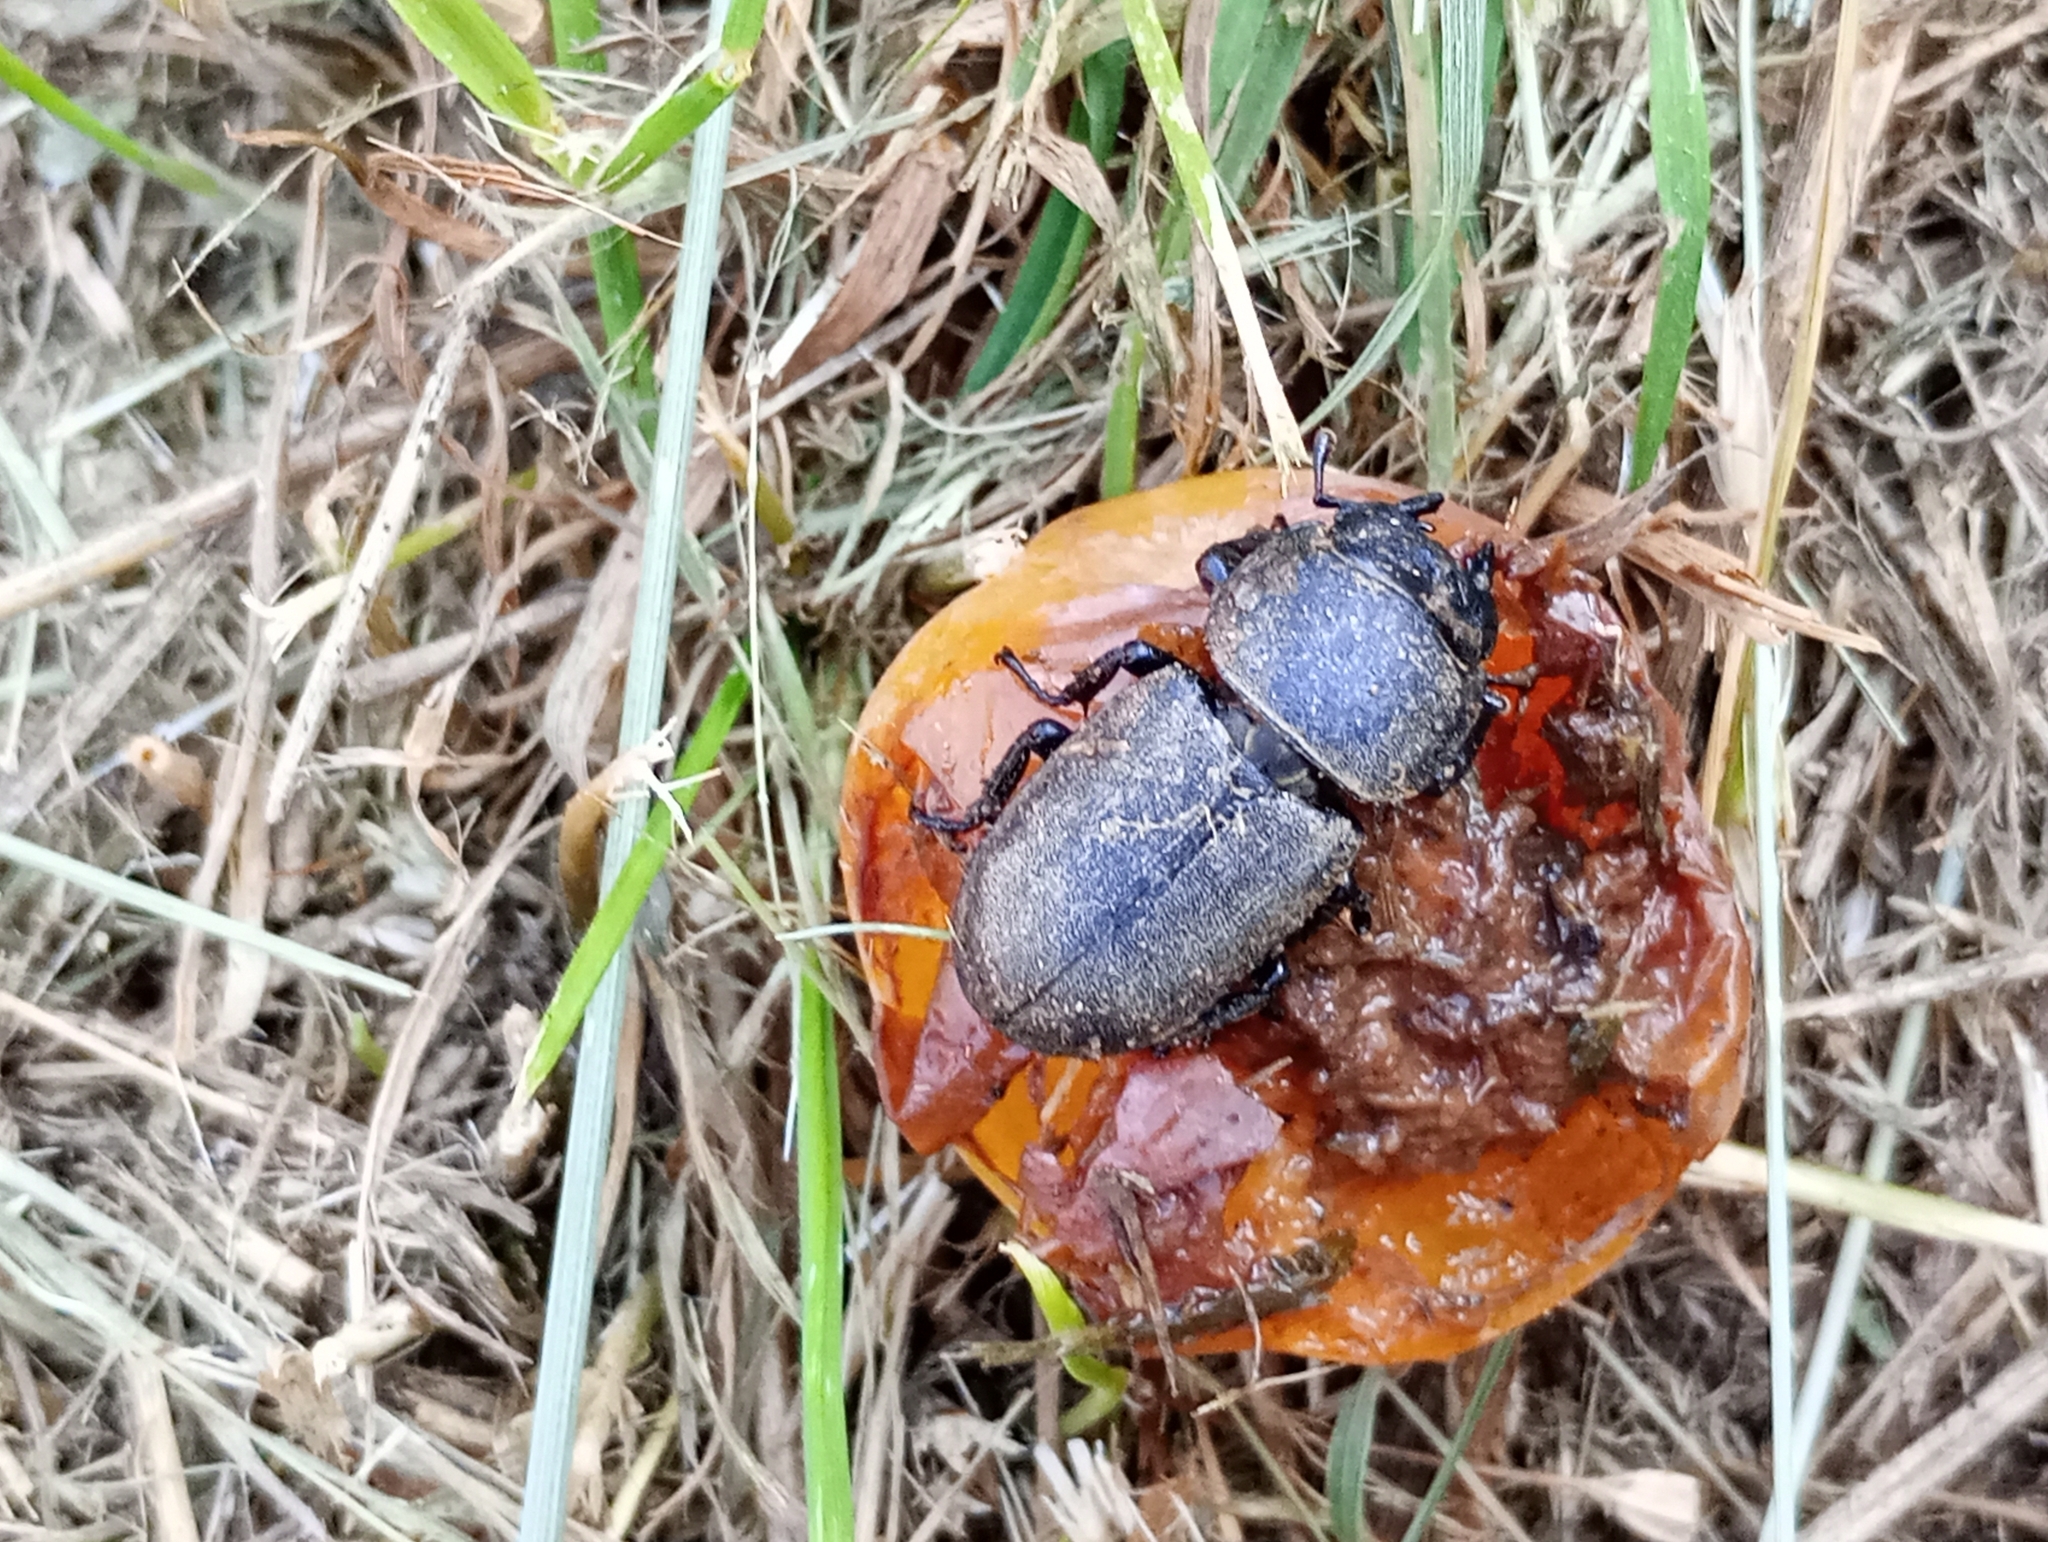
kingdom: Animalia
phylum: Arthropoda
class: Insecta
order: Coleoptera
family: Lucanidae
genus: Dorcus
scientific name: Dorcus parallelipipedus
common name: Lesser stag beetle
